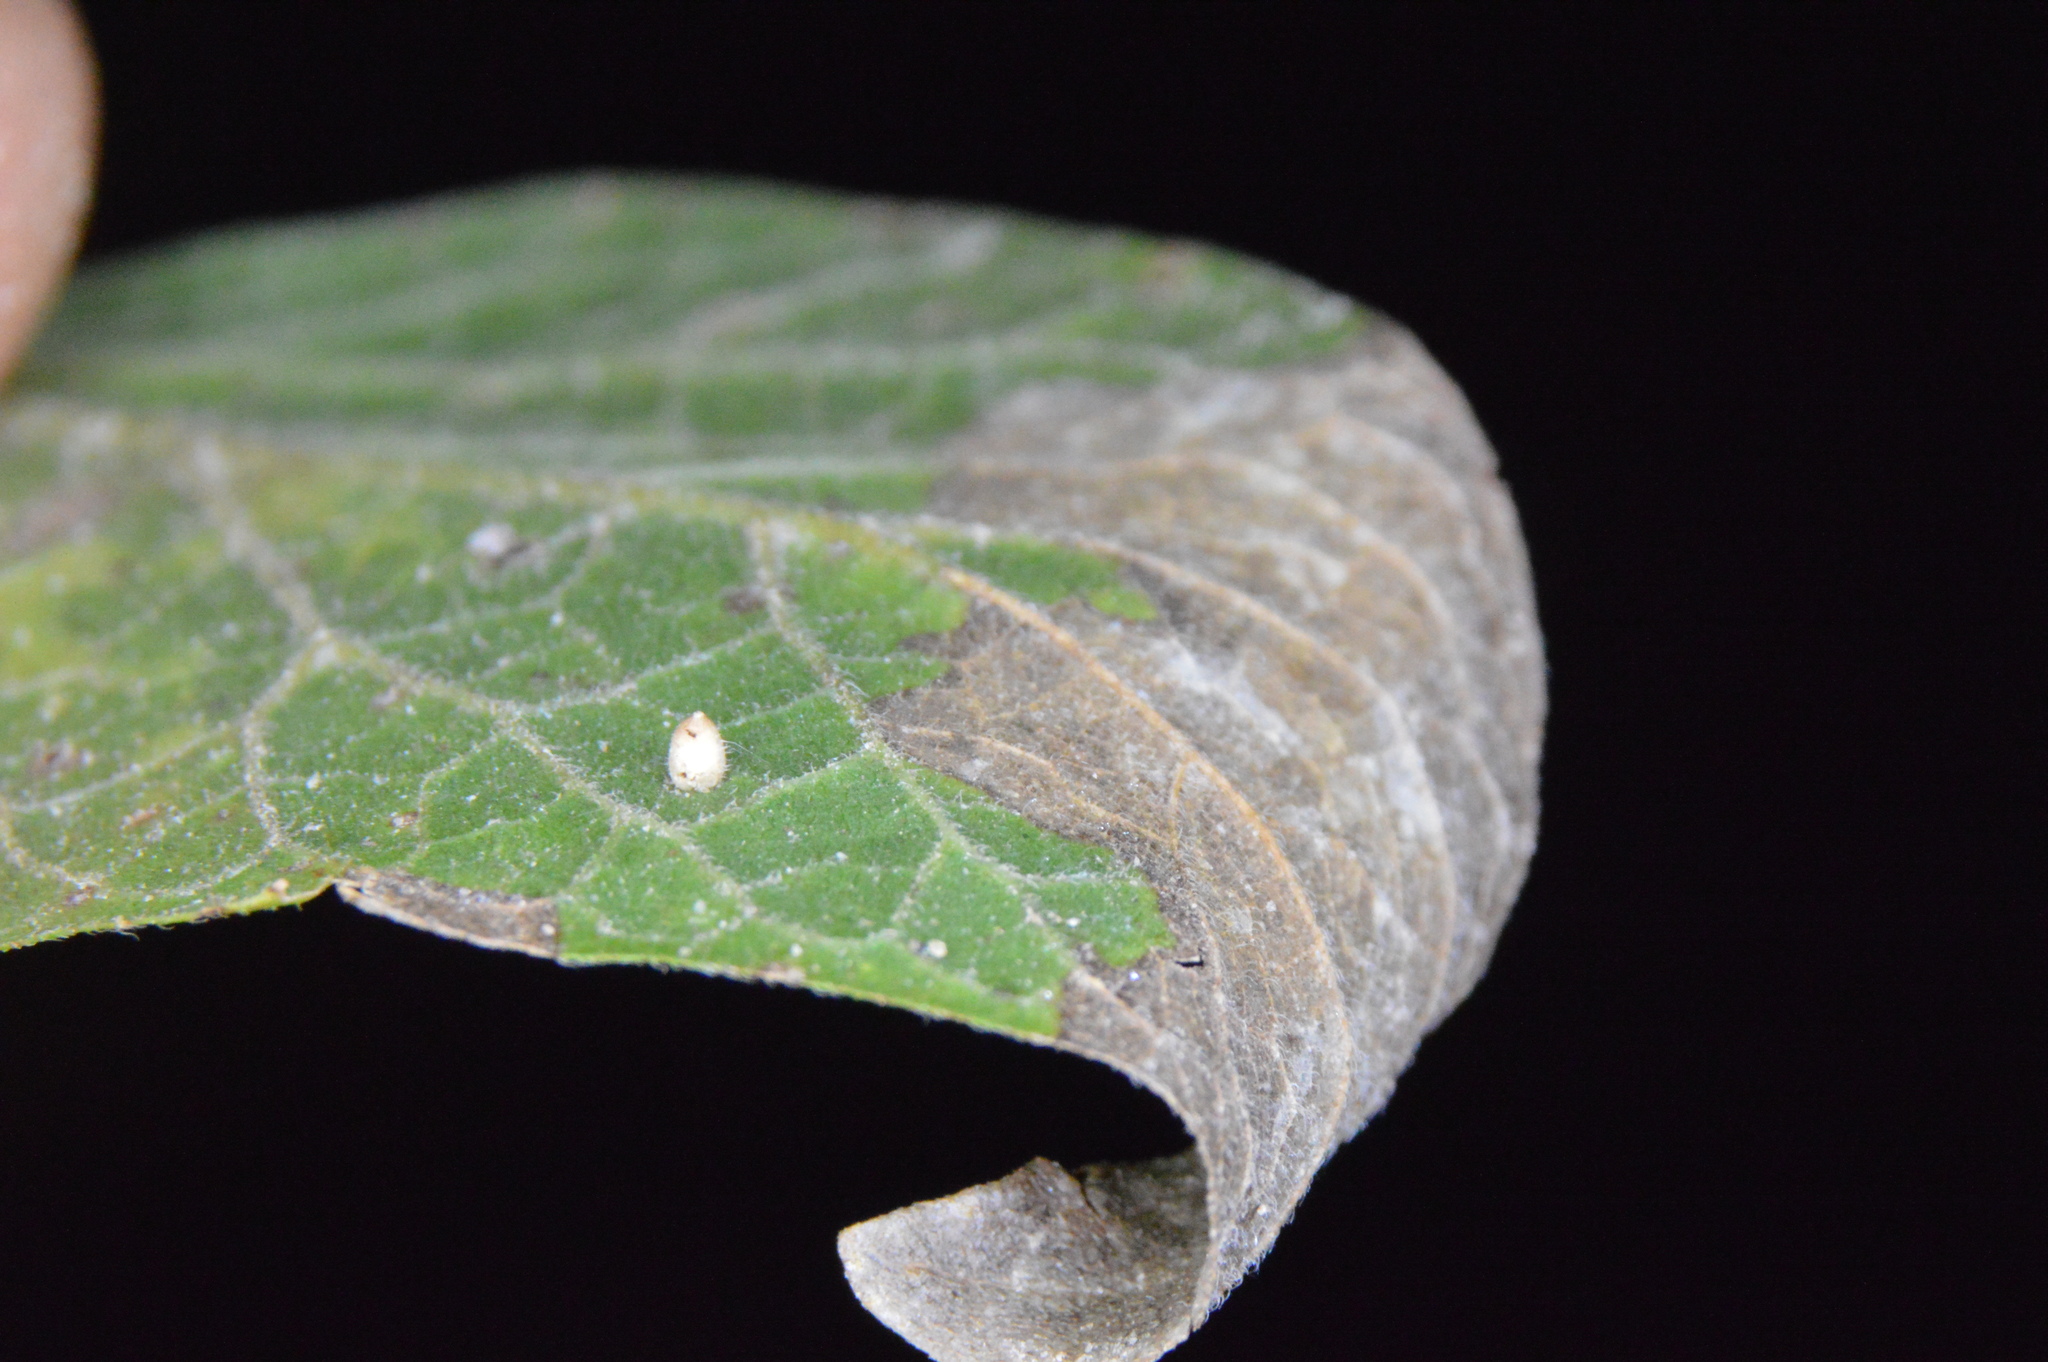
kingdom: Animalia
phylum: Arthropoda
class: Insecta
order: Diptera
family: Cecidomyiidae
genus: Celticecis
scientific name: Celticecis cupiformis
